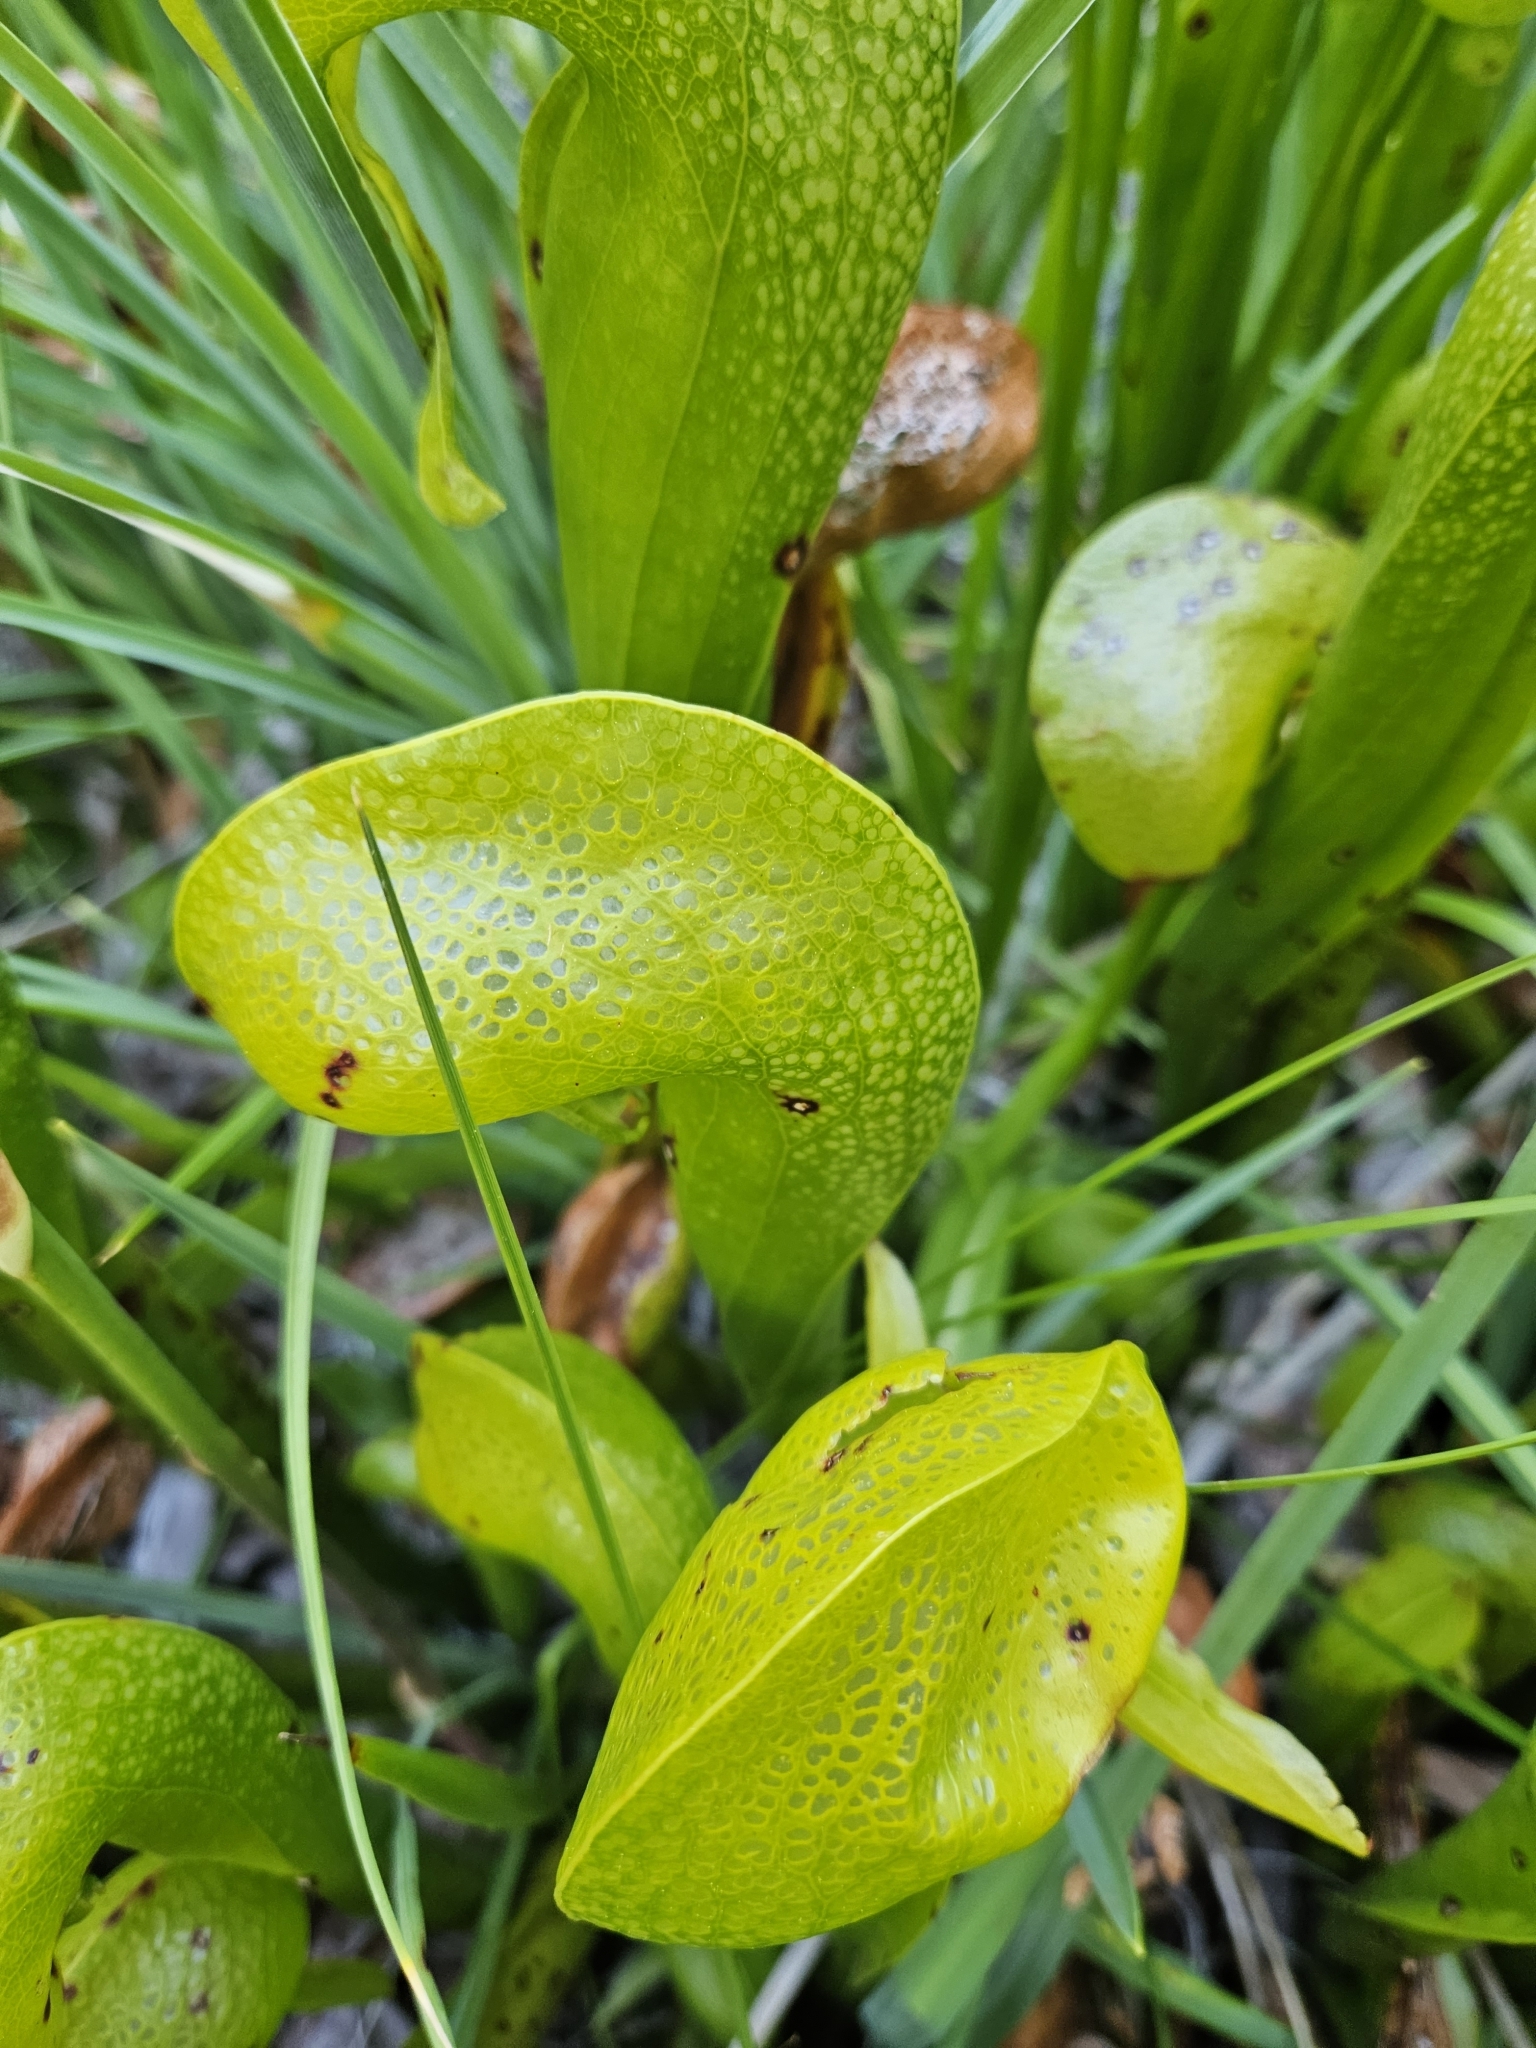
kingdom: Plantae
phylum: Tracheophyta
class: Magnoliopsida
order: Ericales
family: Sarraceniaceae
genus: Darlingtonia
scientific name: Darlingtonia californica
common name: California pitcher plant
